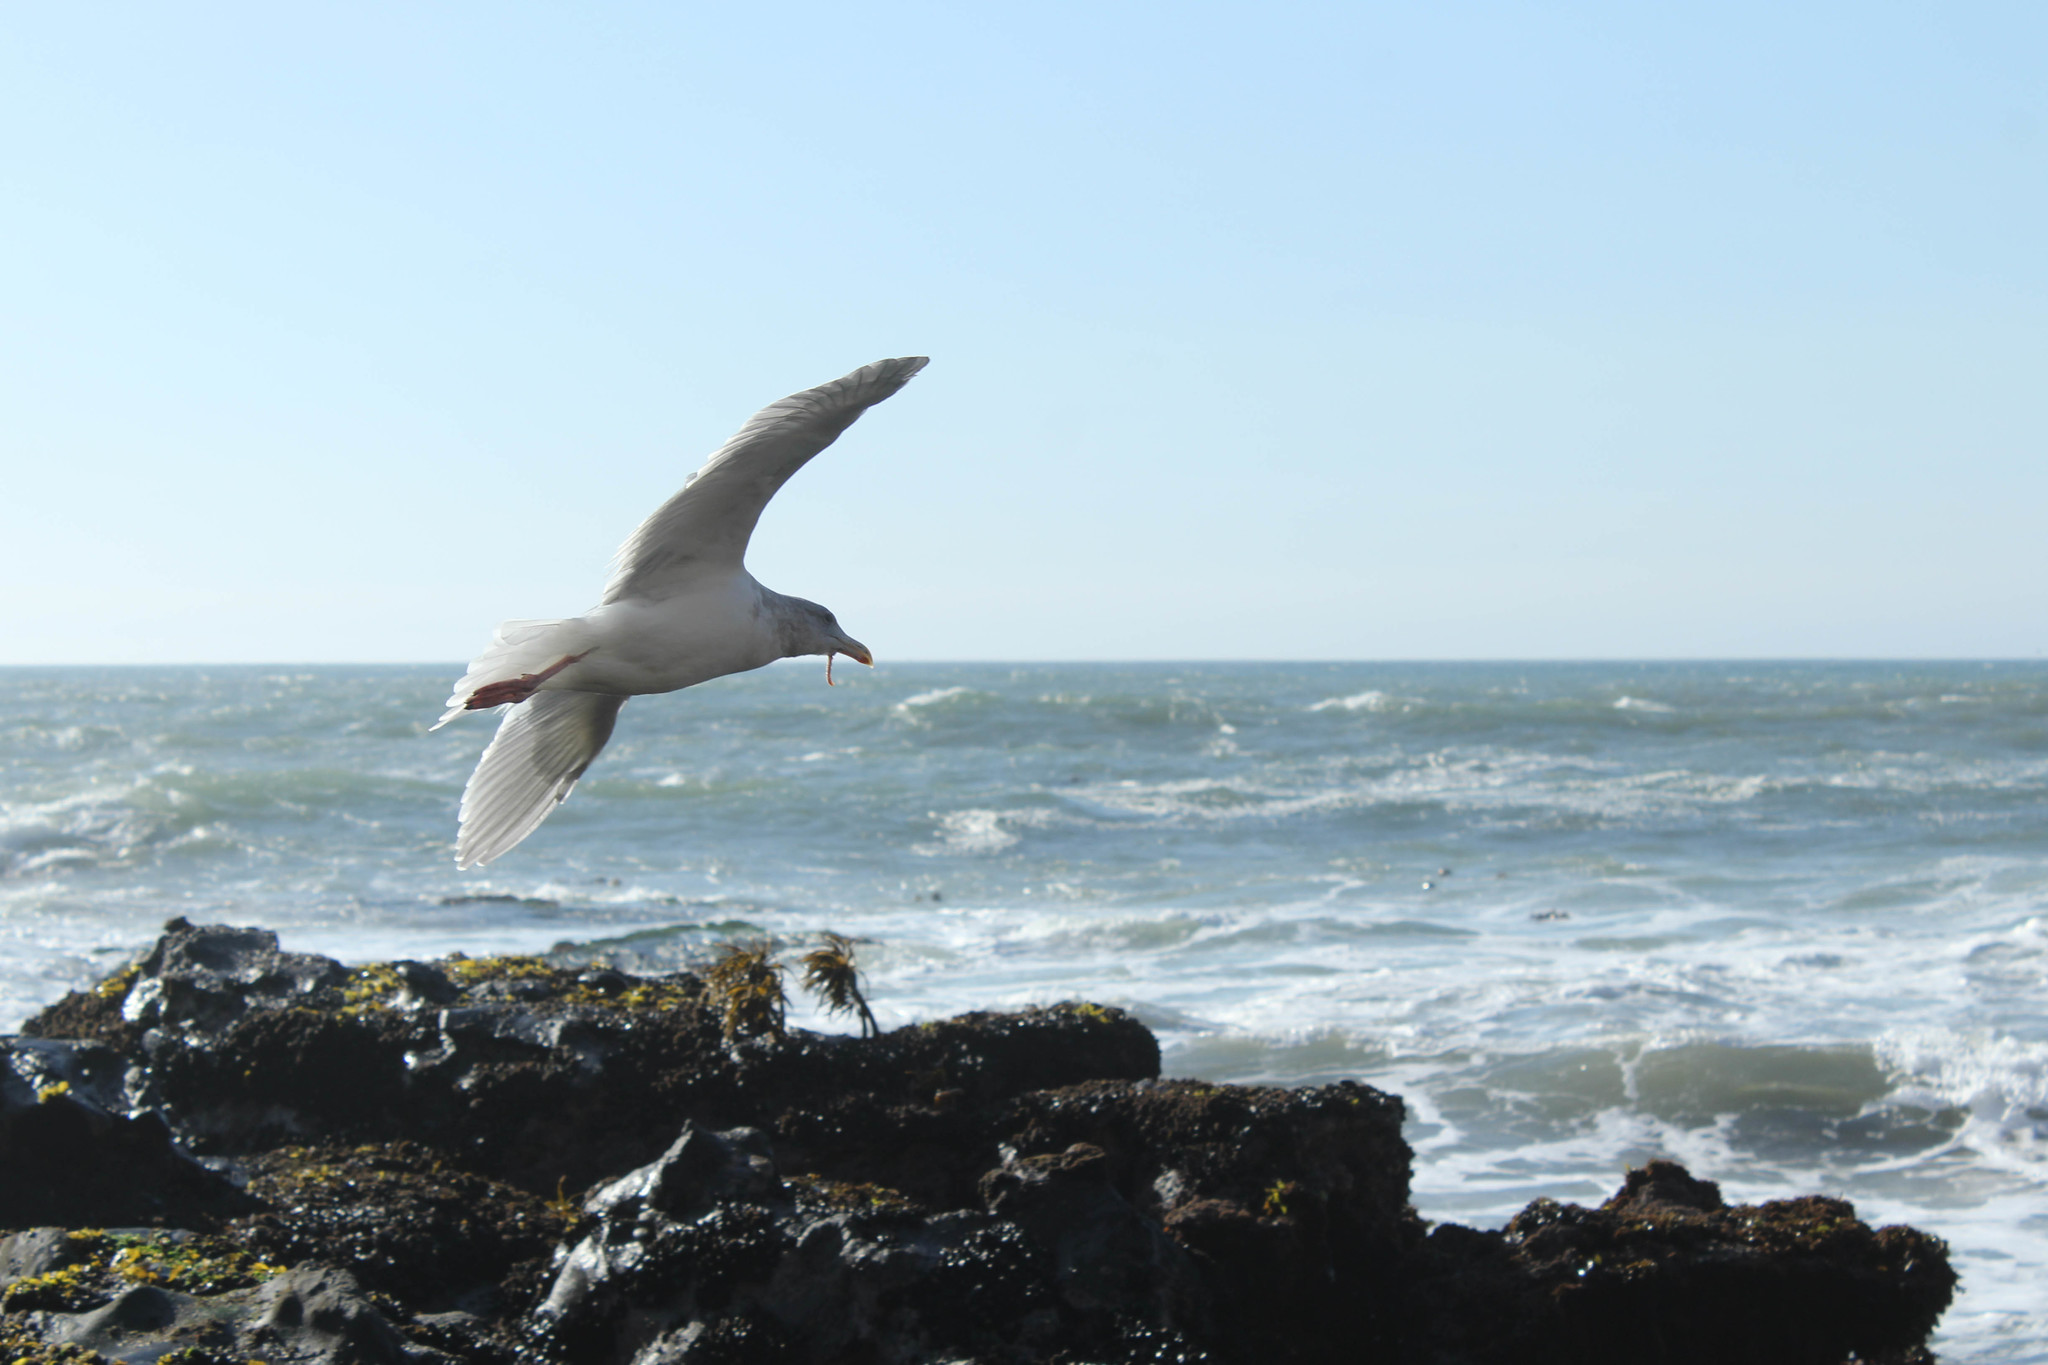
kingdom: Animalia
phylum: Chordata
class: Aves
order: Charadriiformes
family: Laridae
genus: Larus
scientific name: Larus occidentalis
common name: Western gull
